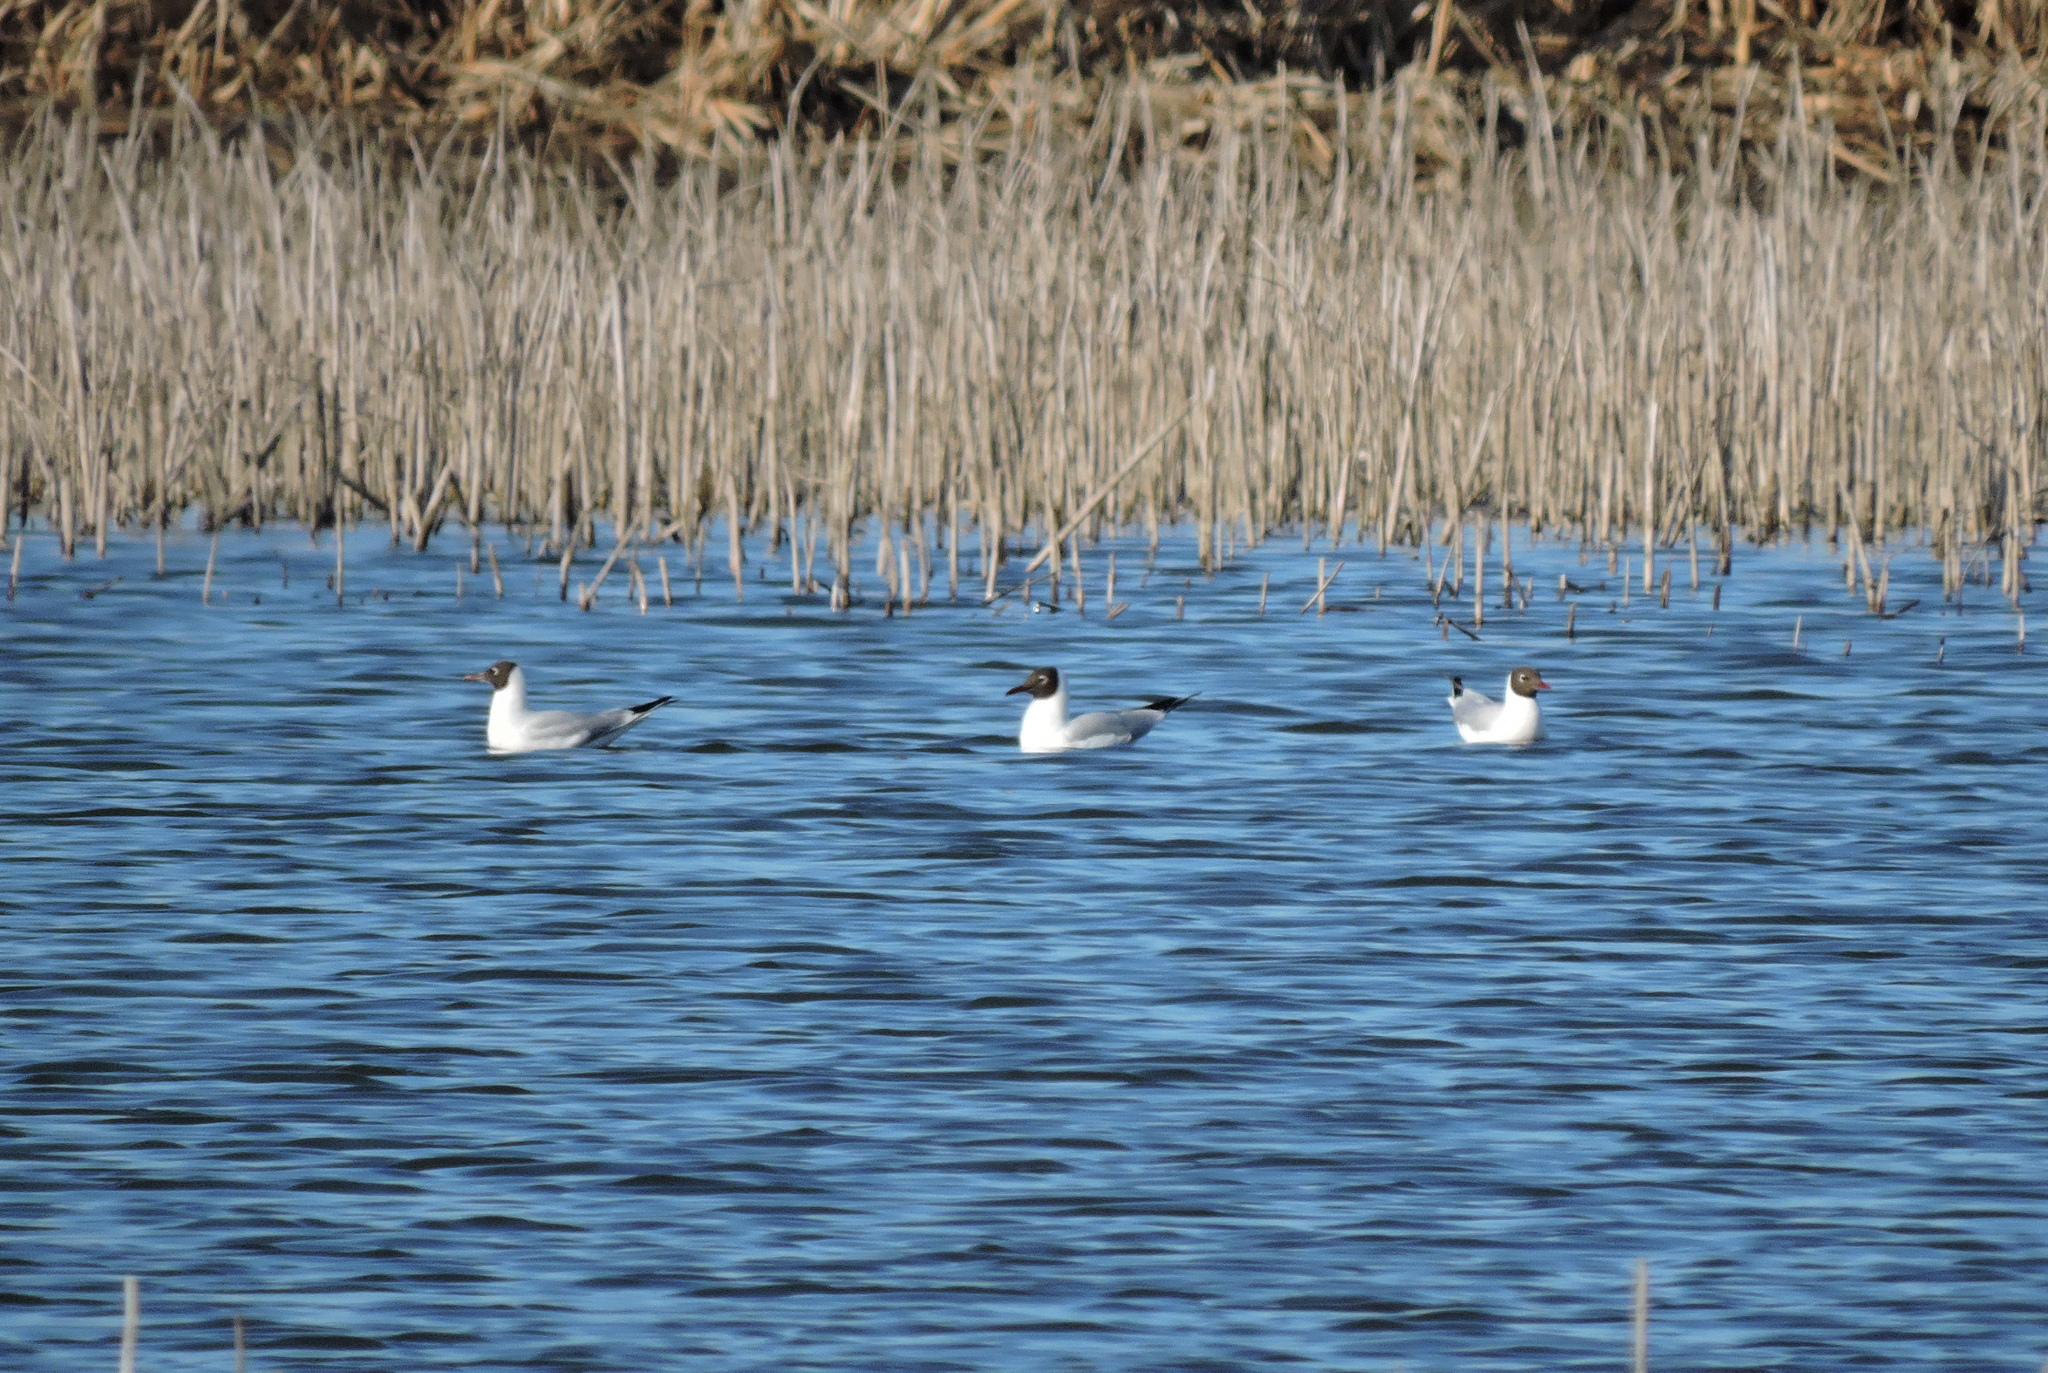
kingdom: Animalia
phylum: Chordata
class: Aves
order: Charadriiformes
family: Laridae
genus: Chroicocephalus
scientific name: Chroicocephalus ridibundus
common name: Black-headed gull
